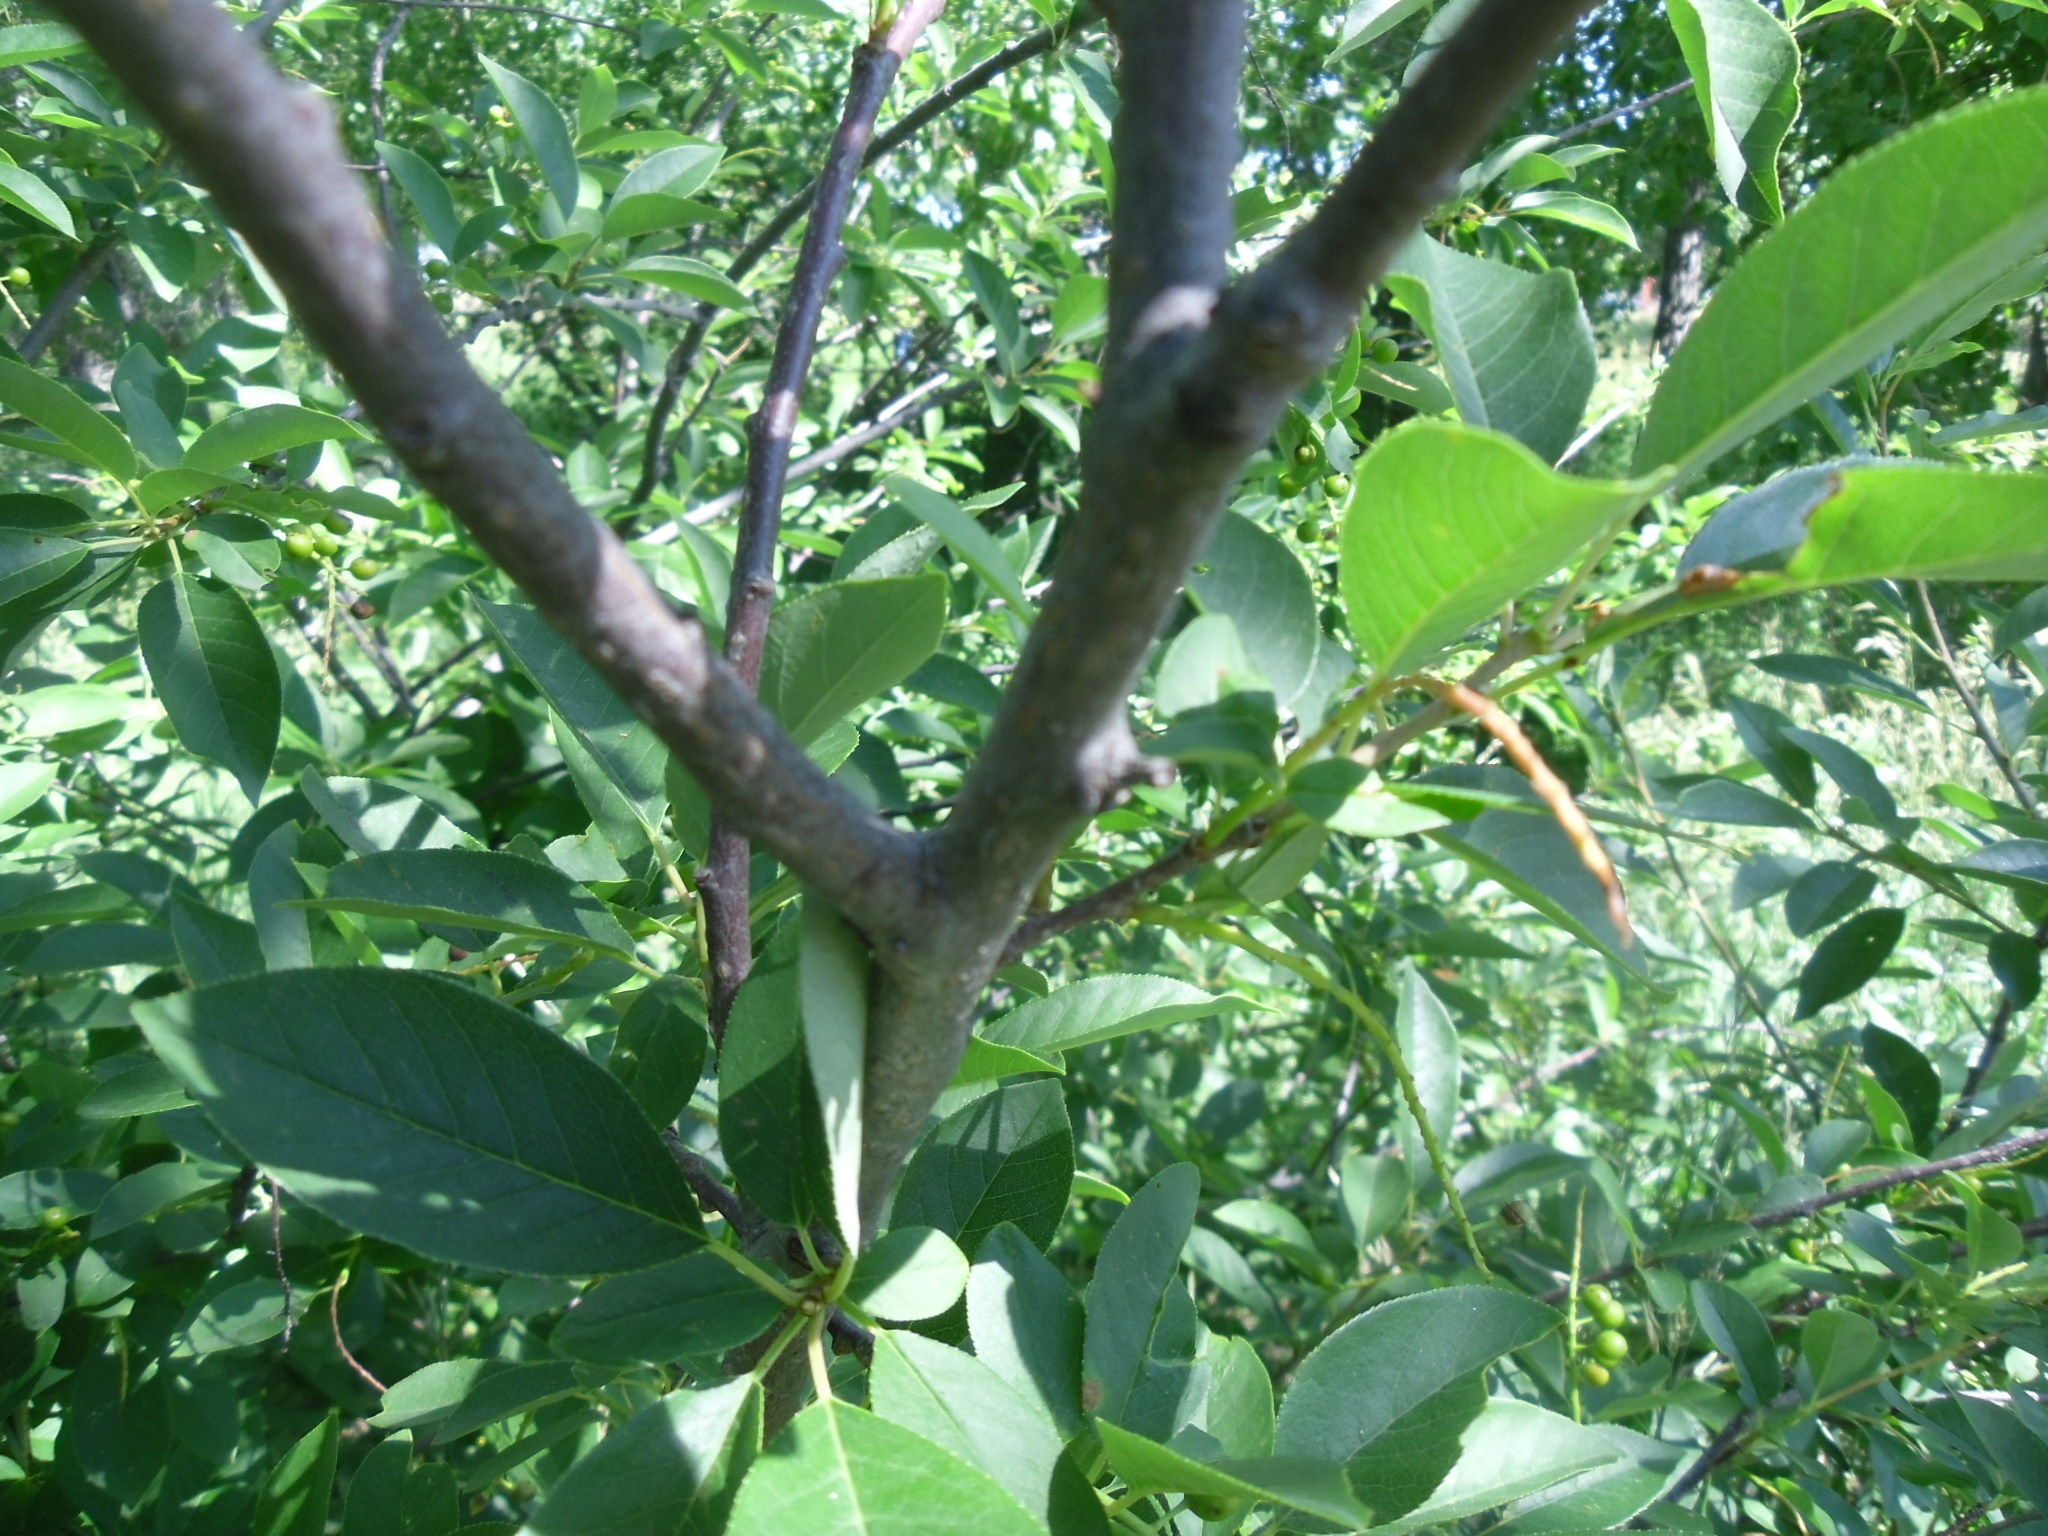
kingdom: Plantae
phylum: Tracheophyta
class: Magnoliopsida
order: Rosales
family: Rosaceae
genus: Prunus
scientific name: Prunus virginiana
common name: Chokecherry
